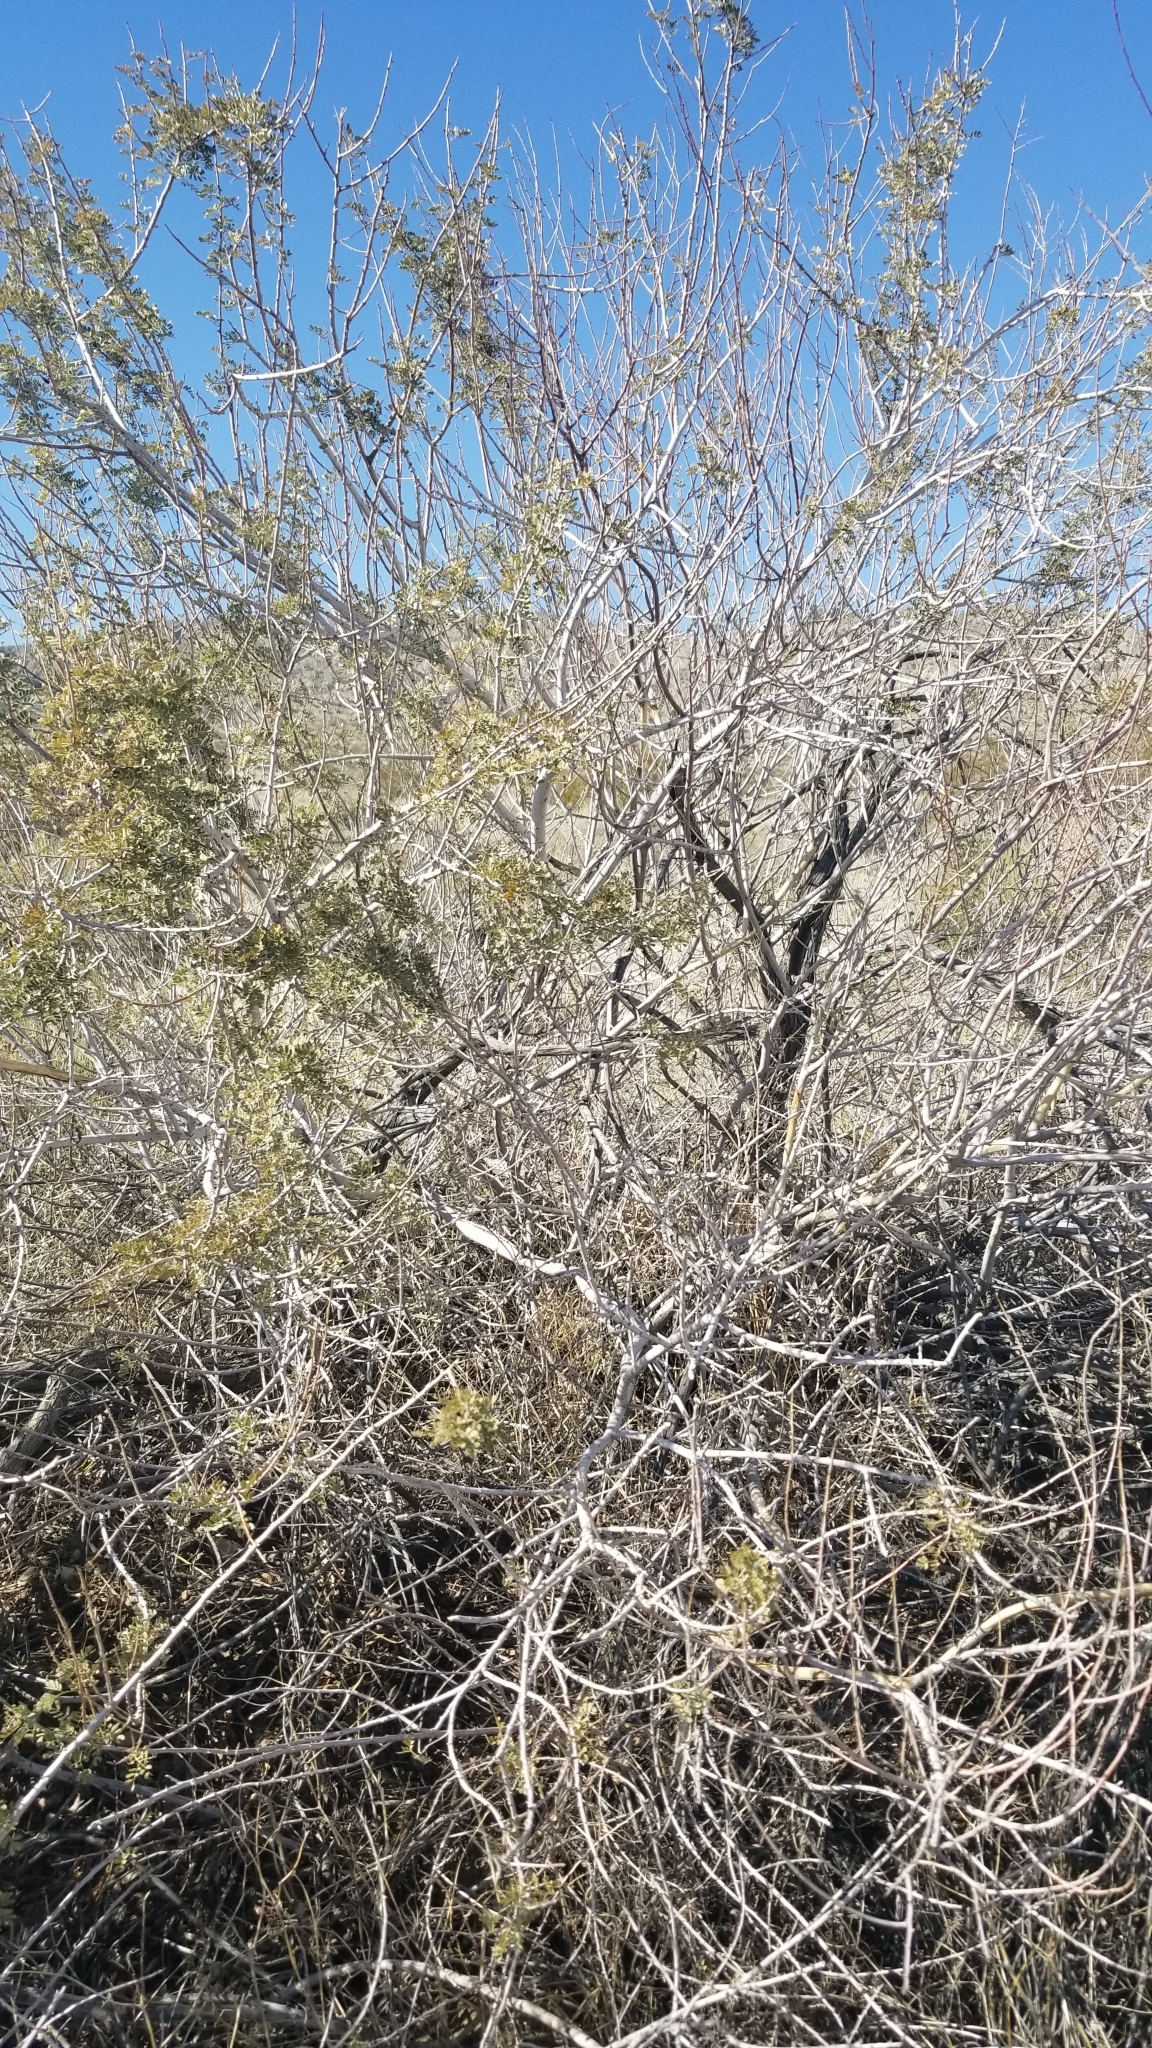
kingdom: Plantae
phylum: Tracheophyta
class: Magnoliopsida
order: Fabales
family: Fabaceae
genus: Senegalia
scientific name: Senegalia greggii
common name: Texas-mimosa
